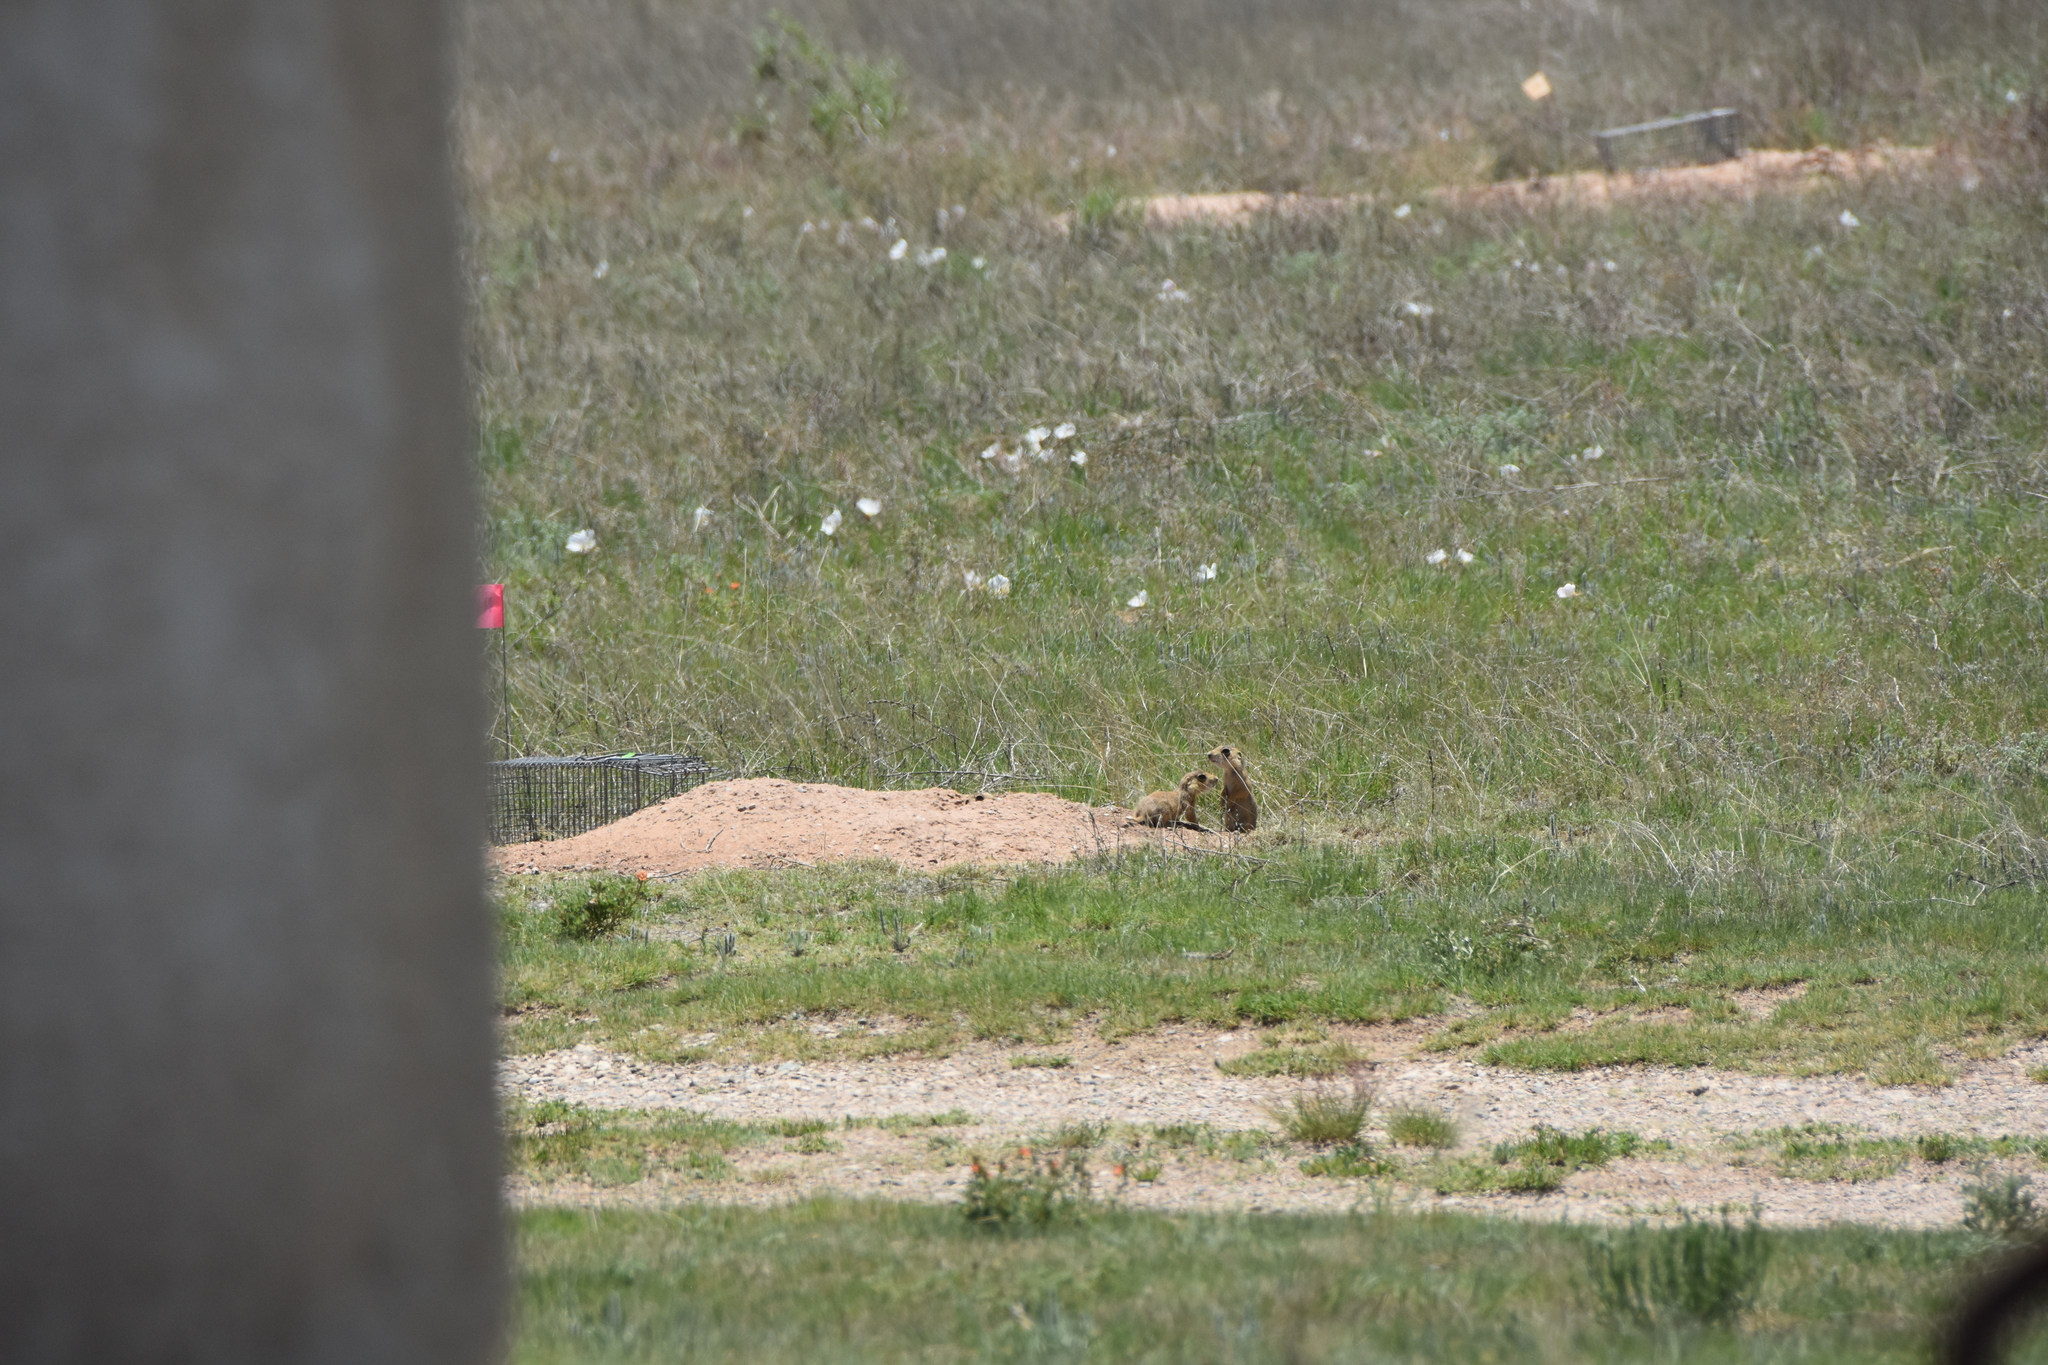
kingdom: Animalia
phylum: Chordata
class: Mammalia
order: Rodentia
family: Sciuridae
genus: Cynomys
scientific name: Cynomys gunnisoni
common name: Gunnison's prairie dog
